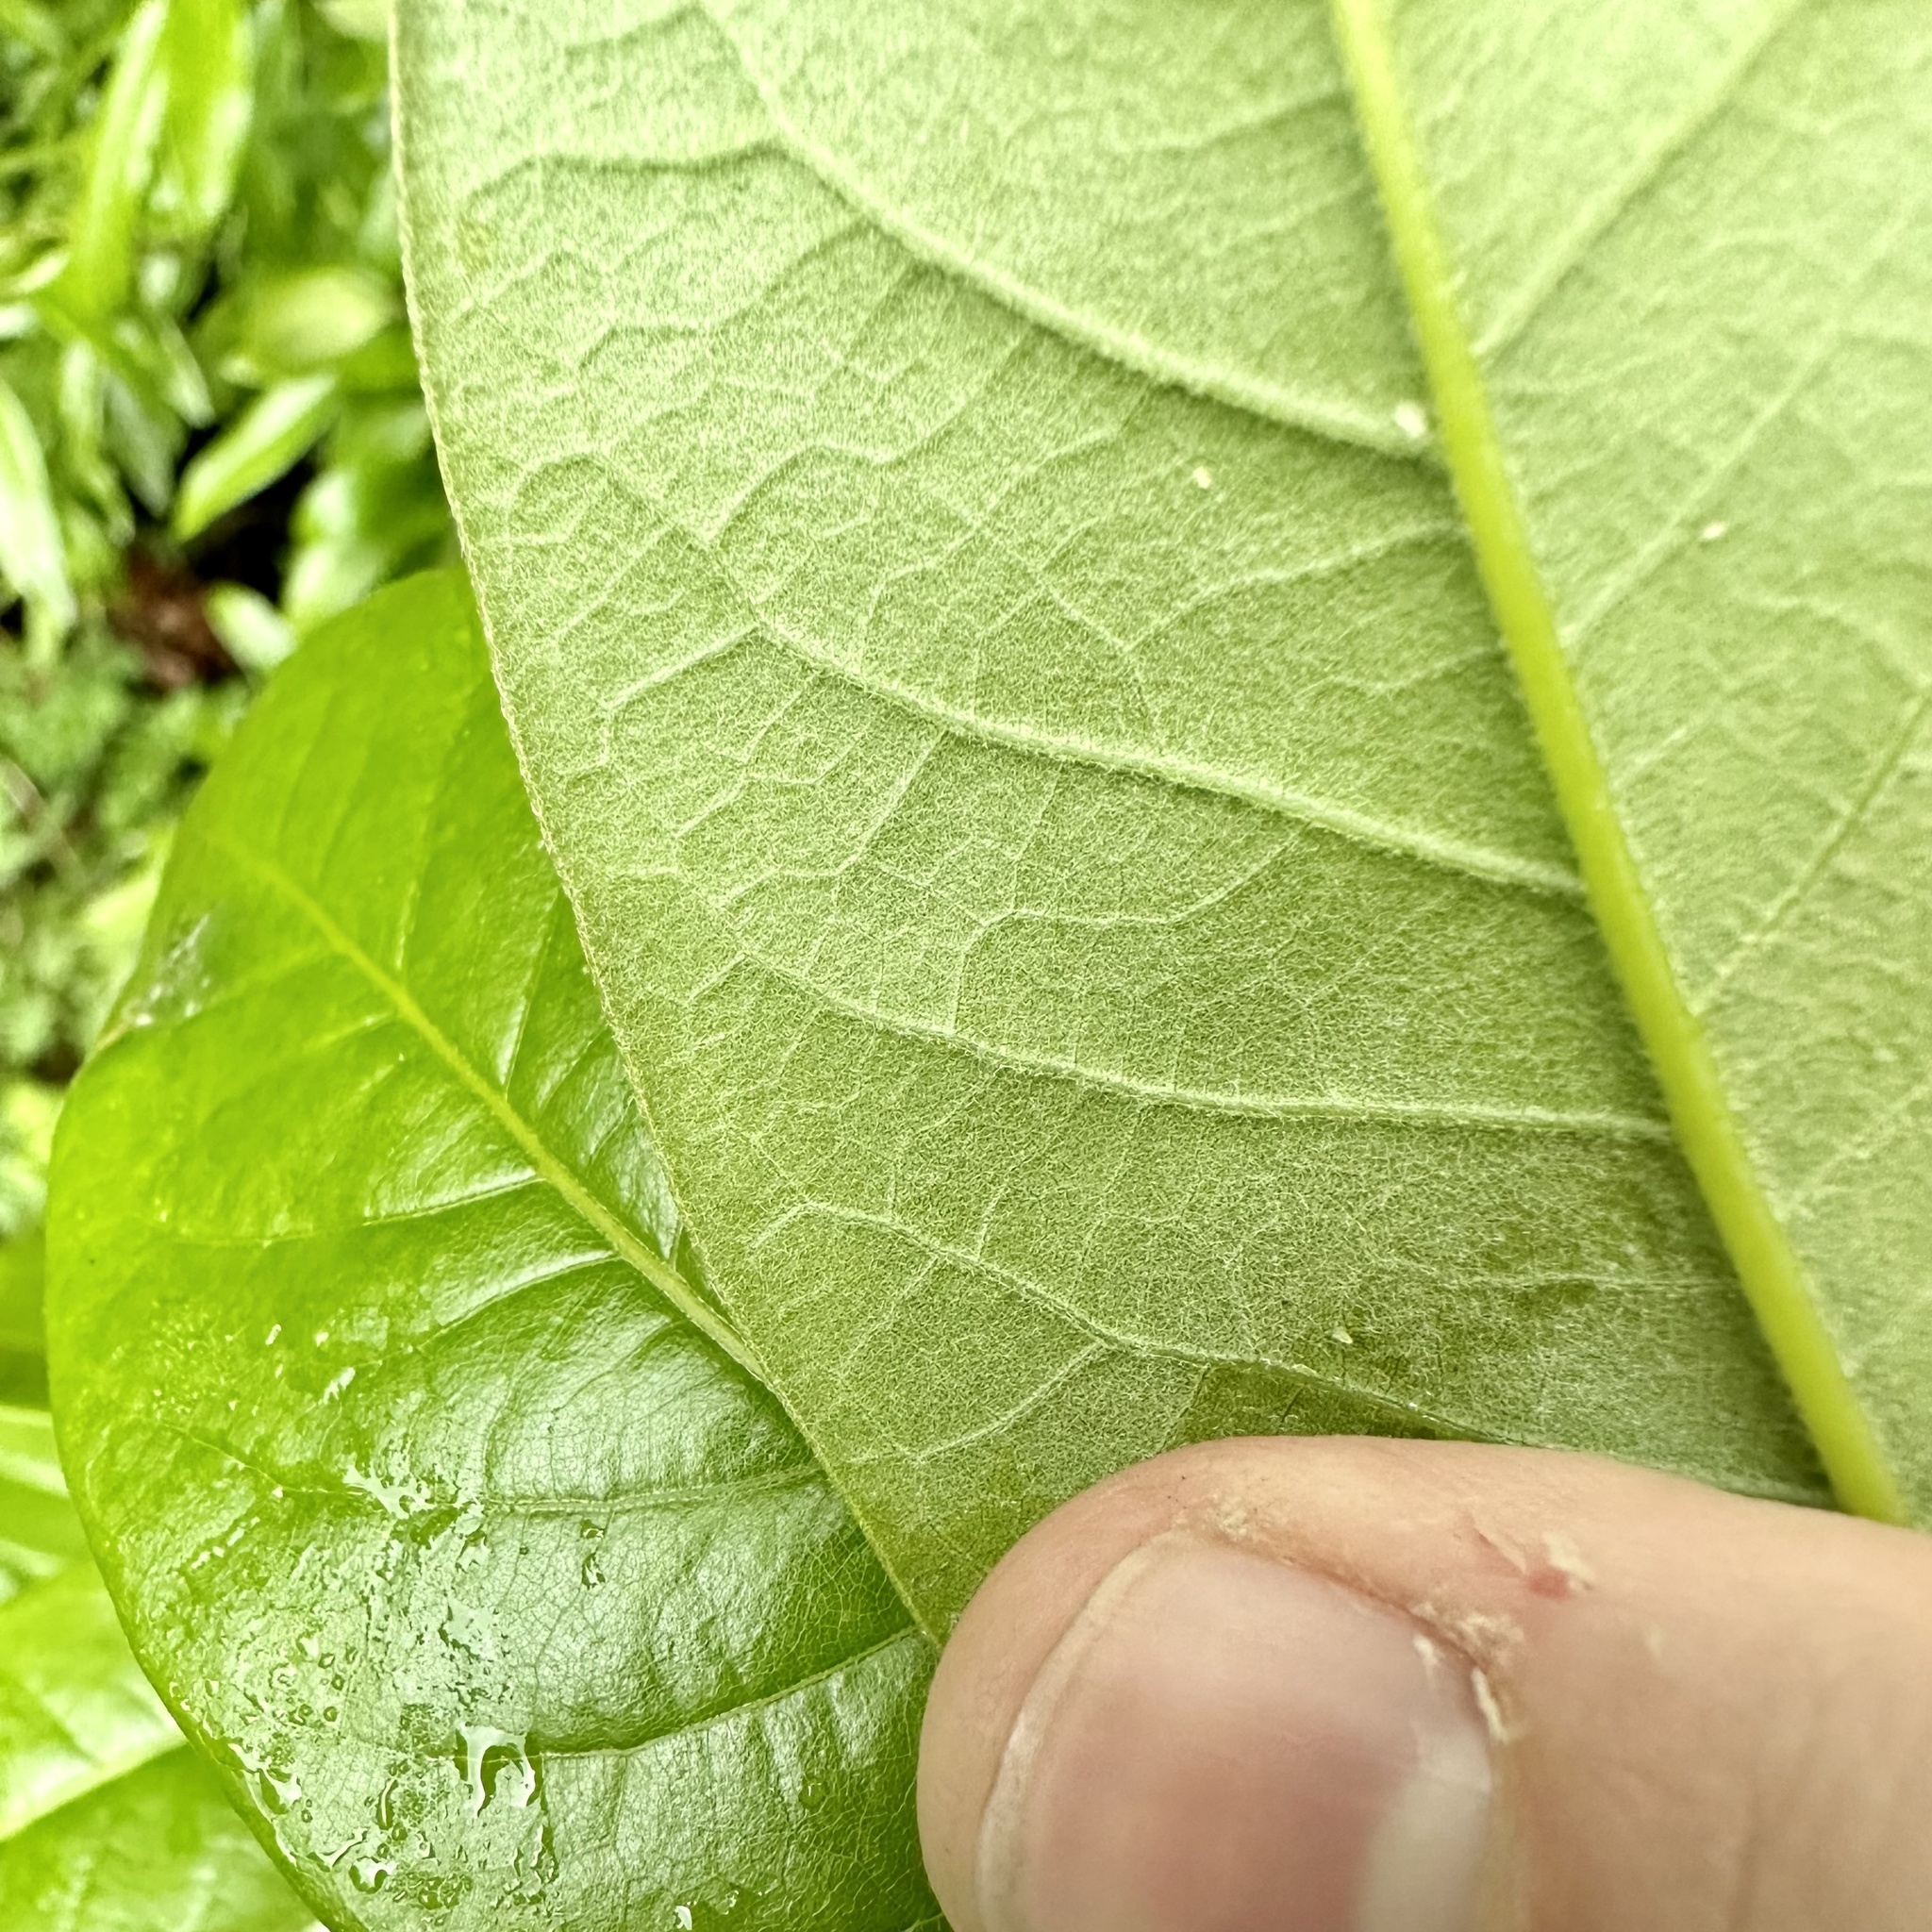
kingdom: Plantae
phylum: Tracheophyta
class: Magnoliopsida
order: Fagales
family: Fagaceae
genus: Quercus
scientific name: Quercus imbricaria
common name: Shingle oak
